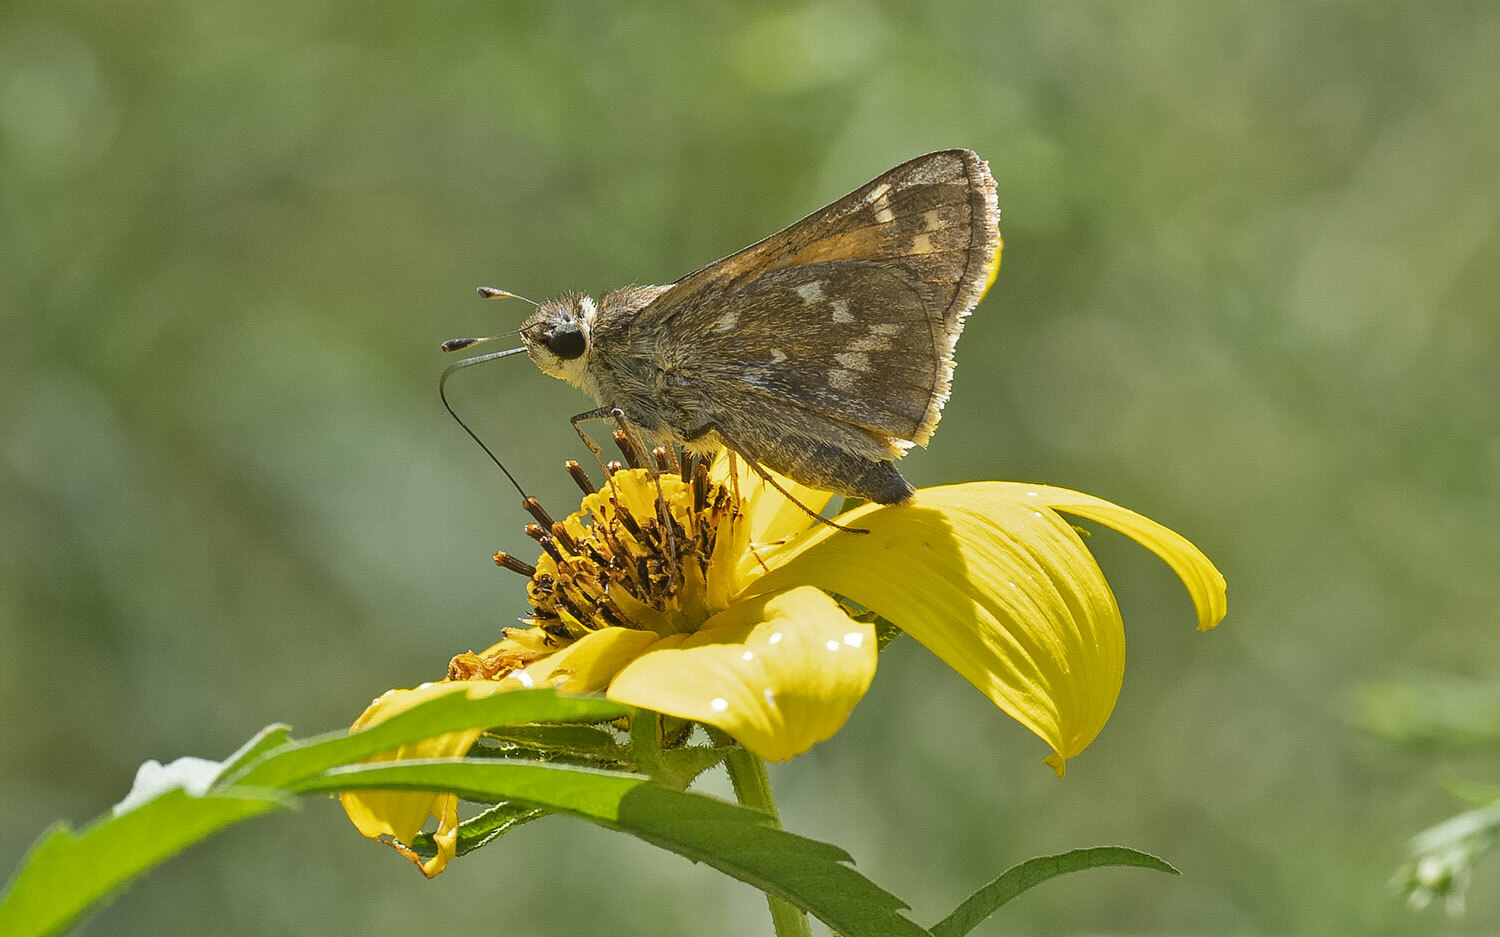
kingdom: Animalia
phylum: Arthropoda
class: Insecta
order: Lepidoptera
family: Hesperiidae
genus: Atalopedes
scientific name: Atalopedes
